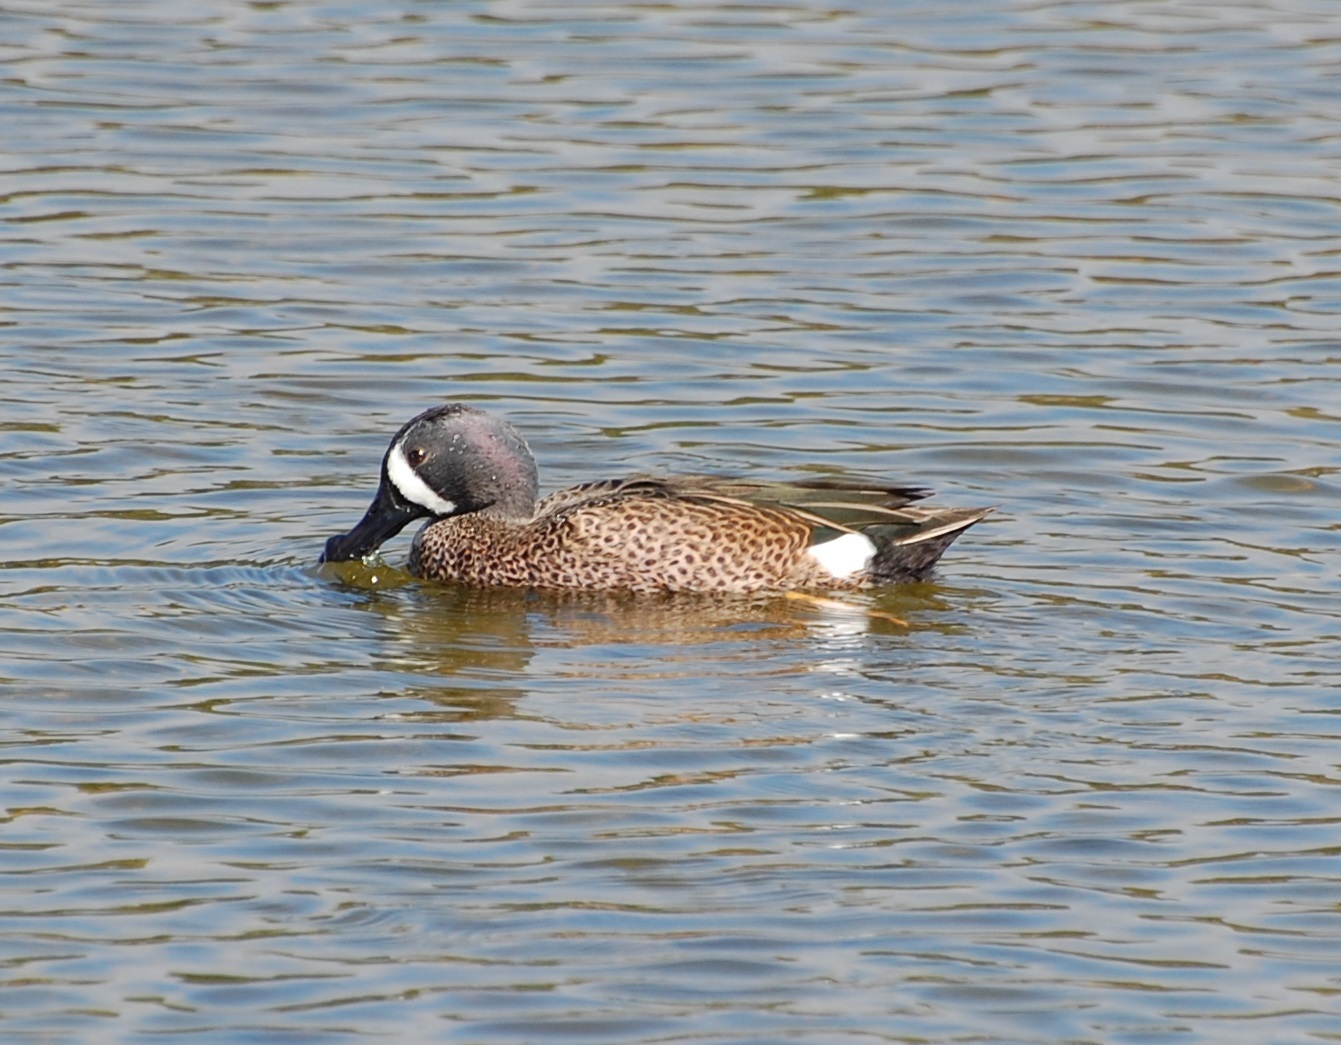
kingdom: Animalia
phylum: Chordata
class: Aves
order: Anseriformes
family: Anatidae
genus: Spatula
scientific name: Spatula discors
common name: Blue-winged teal
